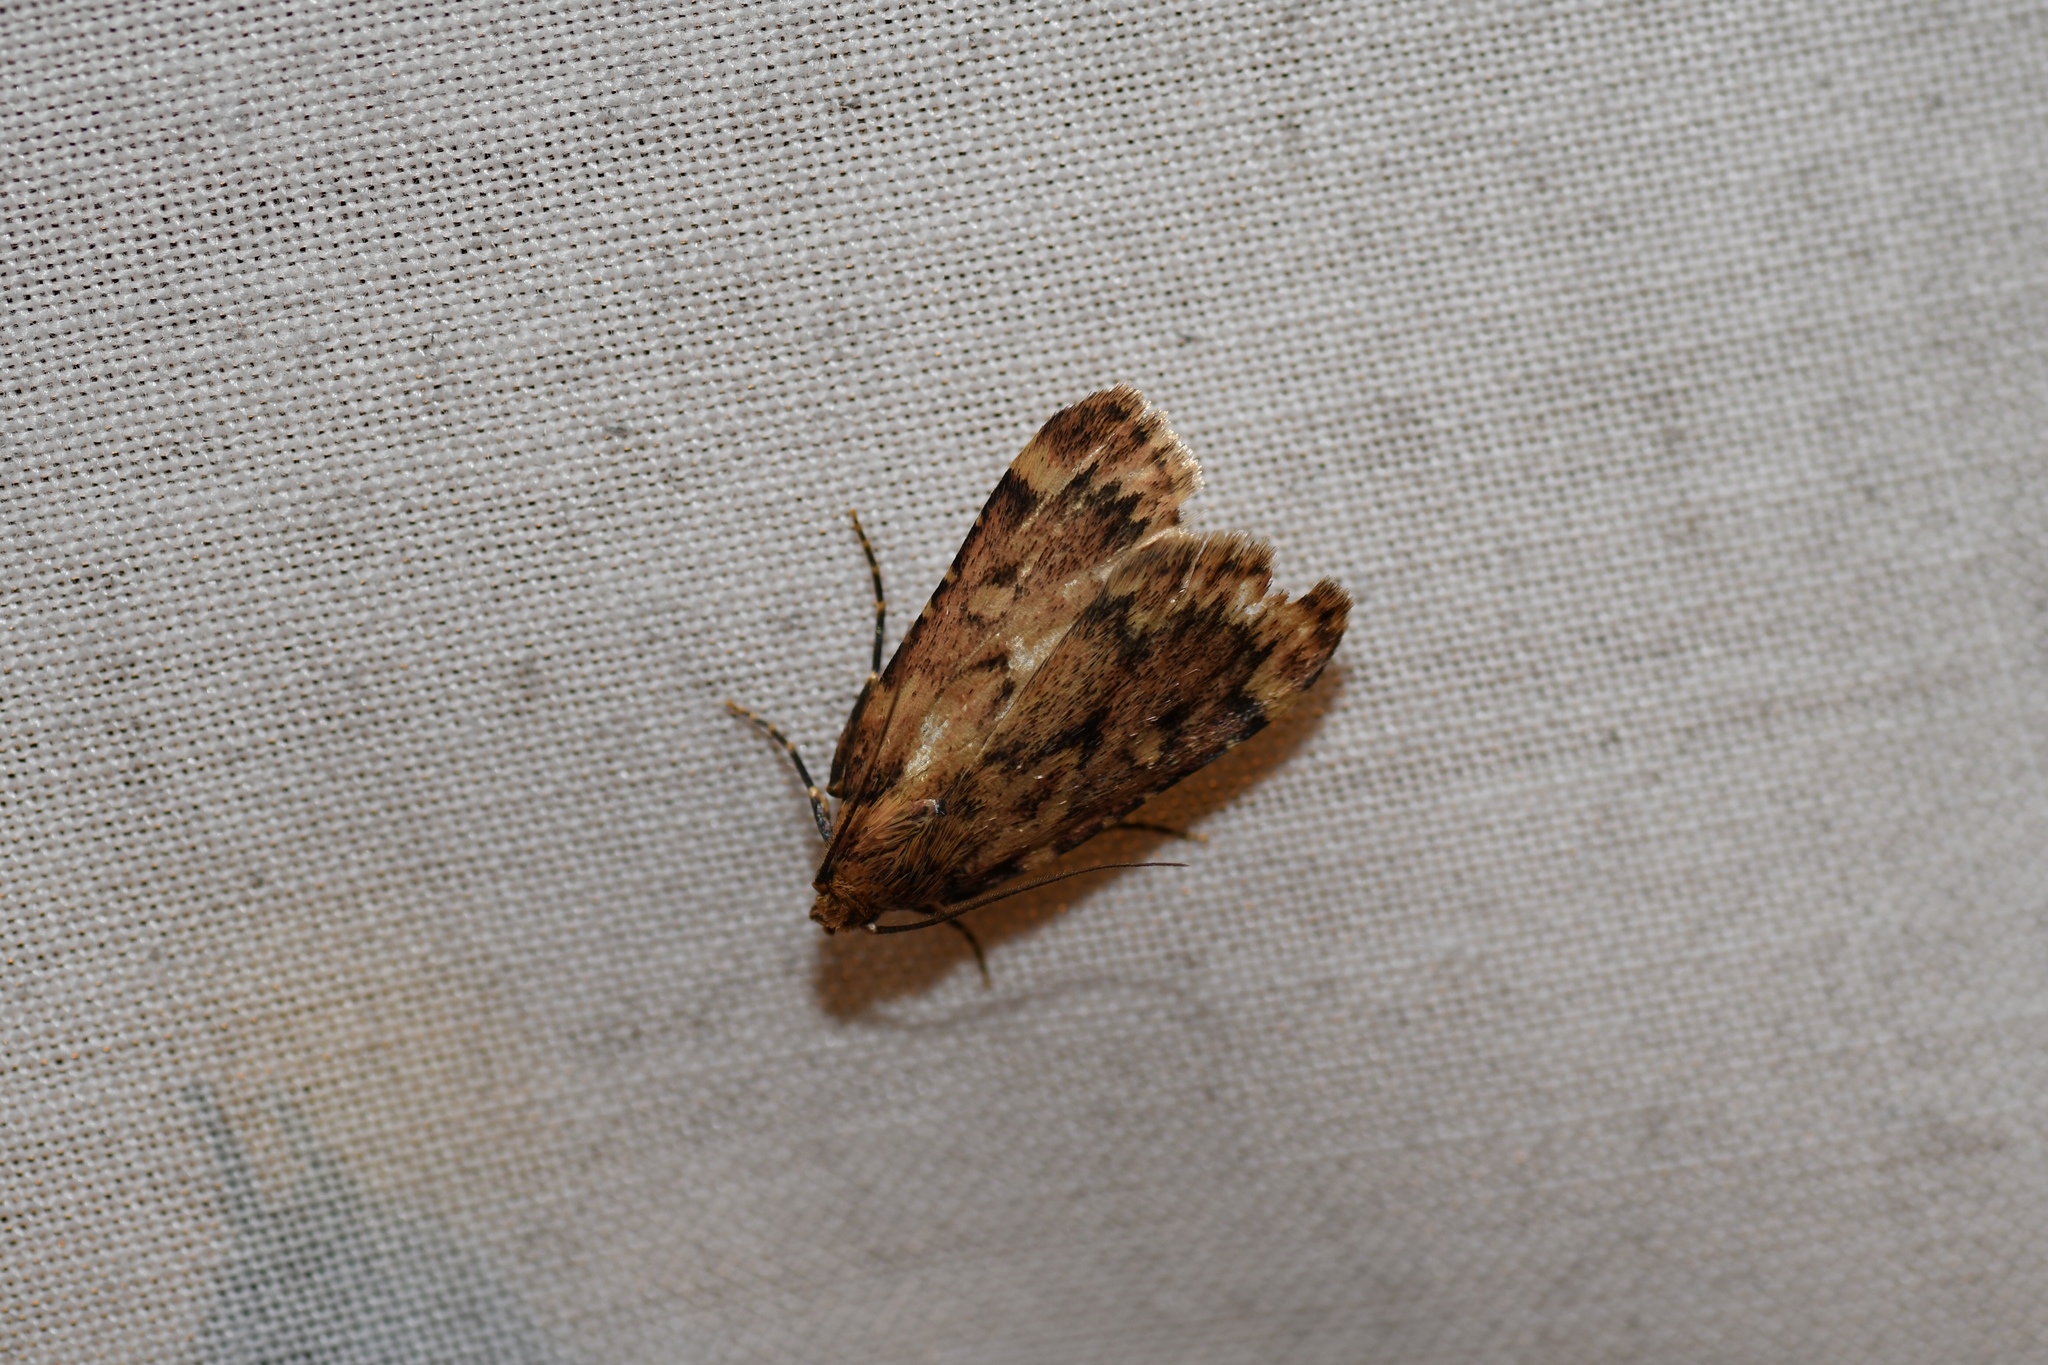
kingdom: Animalia
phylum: Arthropoda
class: Insecta
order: Lepidoptera
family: Pyralidae
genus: Aglossa
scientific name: Aglossa cuprina
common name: Grease moth
